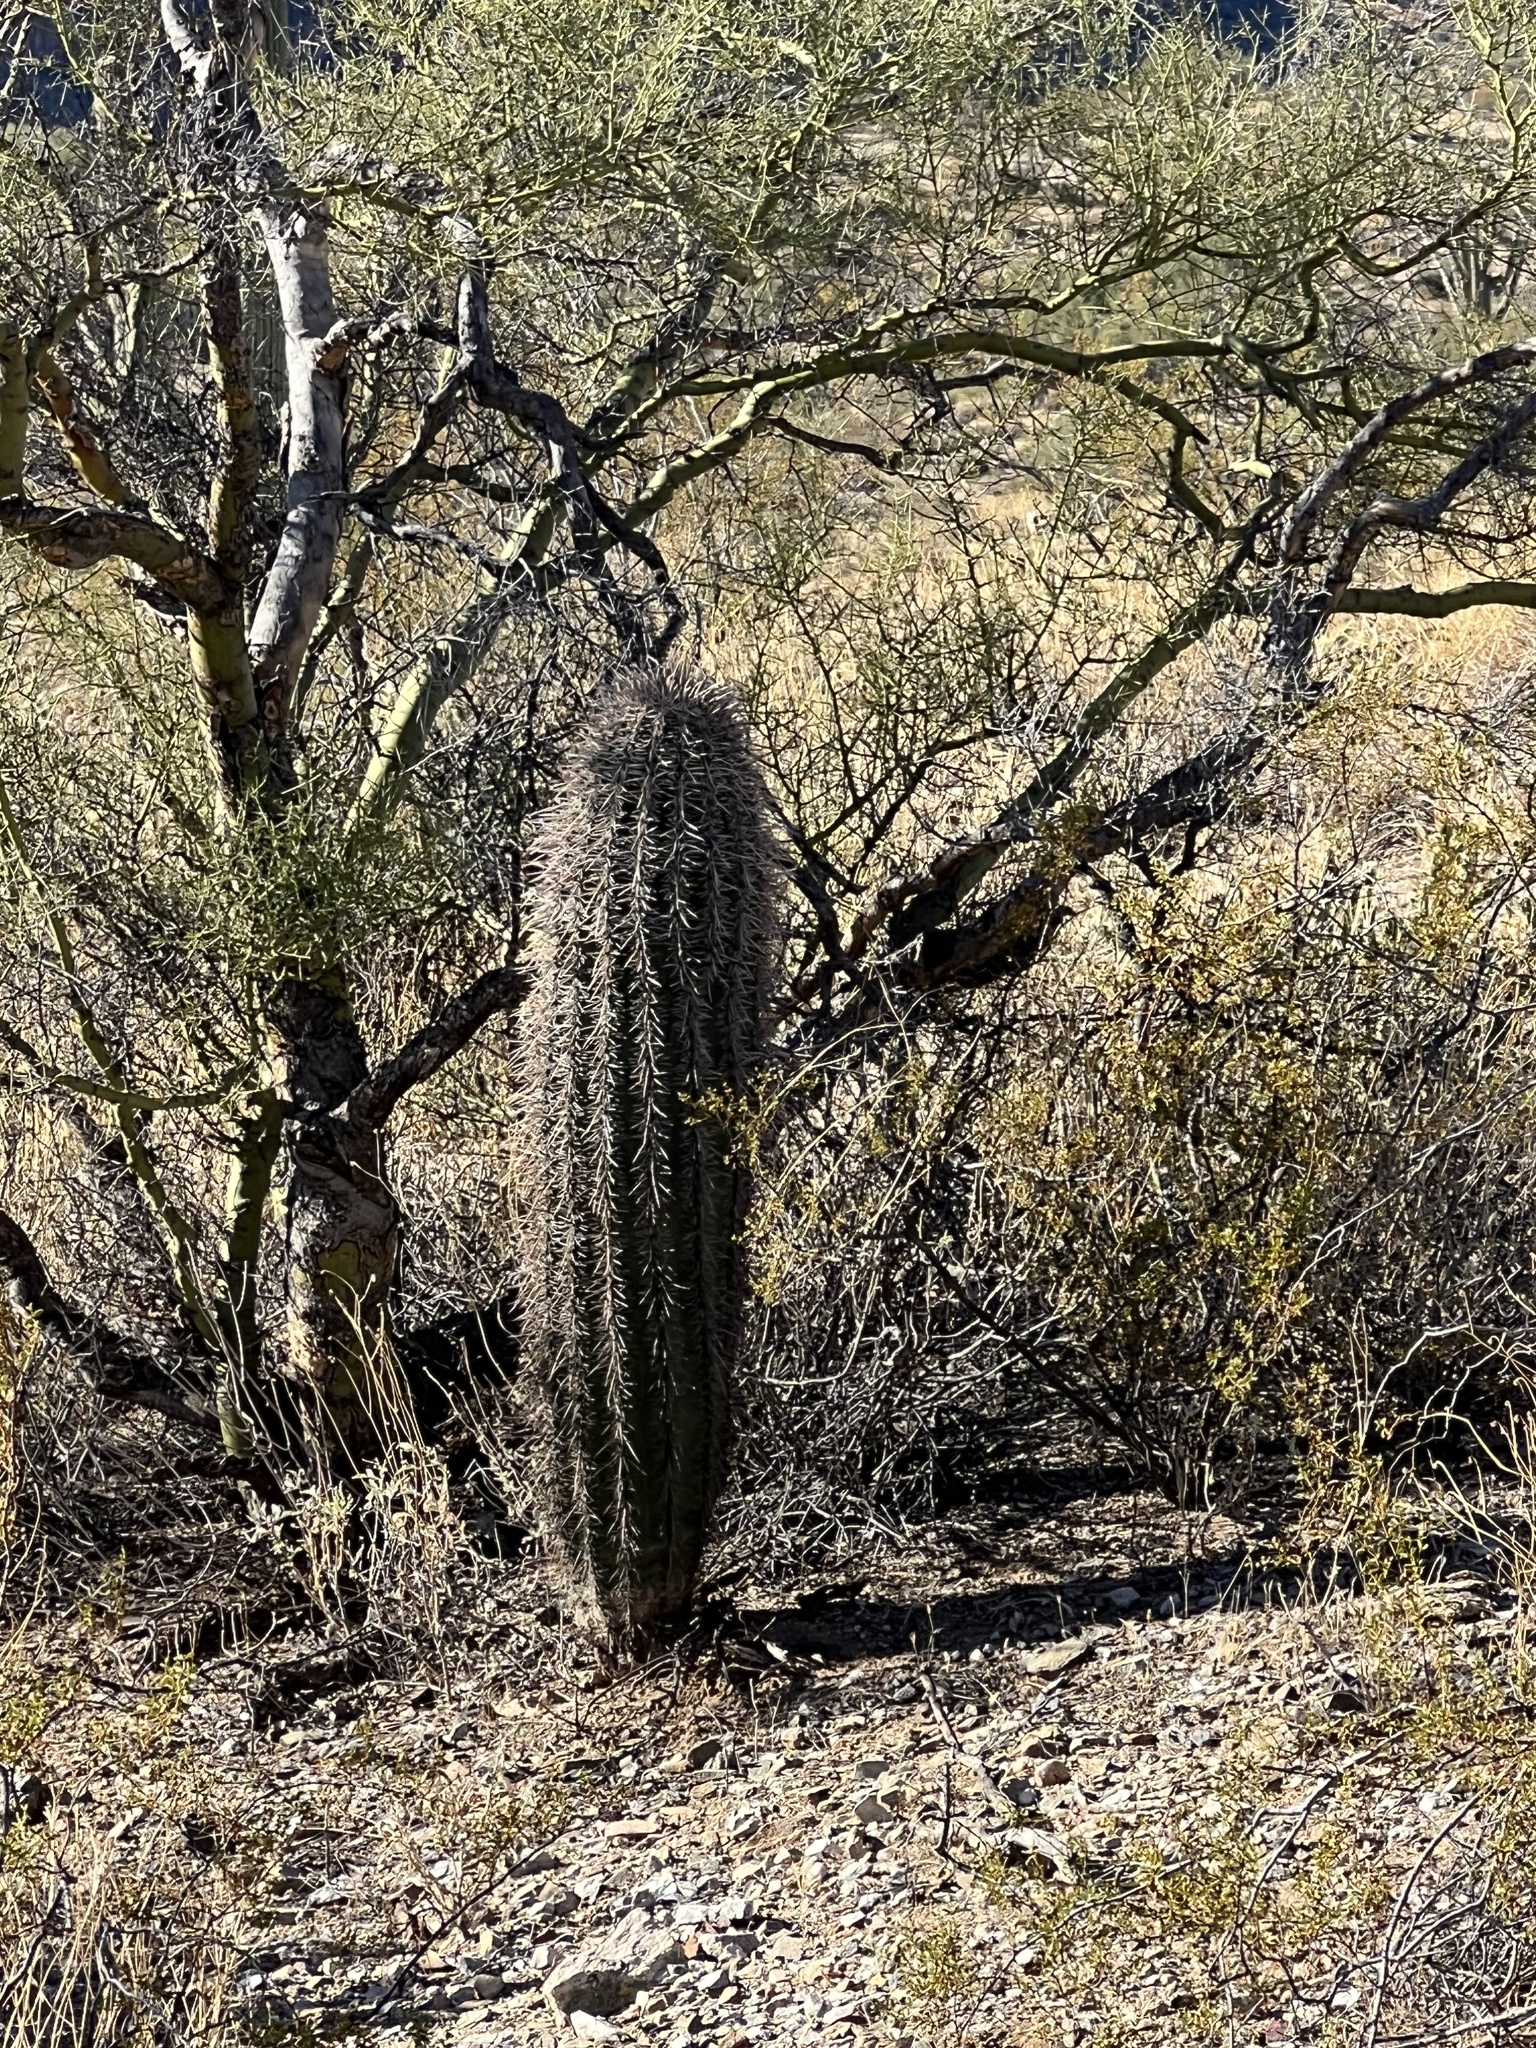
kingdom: Plantae
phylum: Tracheophyta
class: Magnoliopsida
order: Caryophyllales
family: Cactaceae
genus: Carnegiea
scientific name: Carnegiea gigantea
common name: Saguaro
